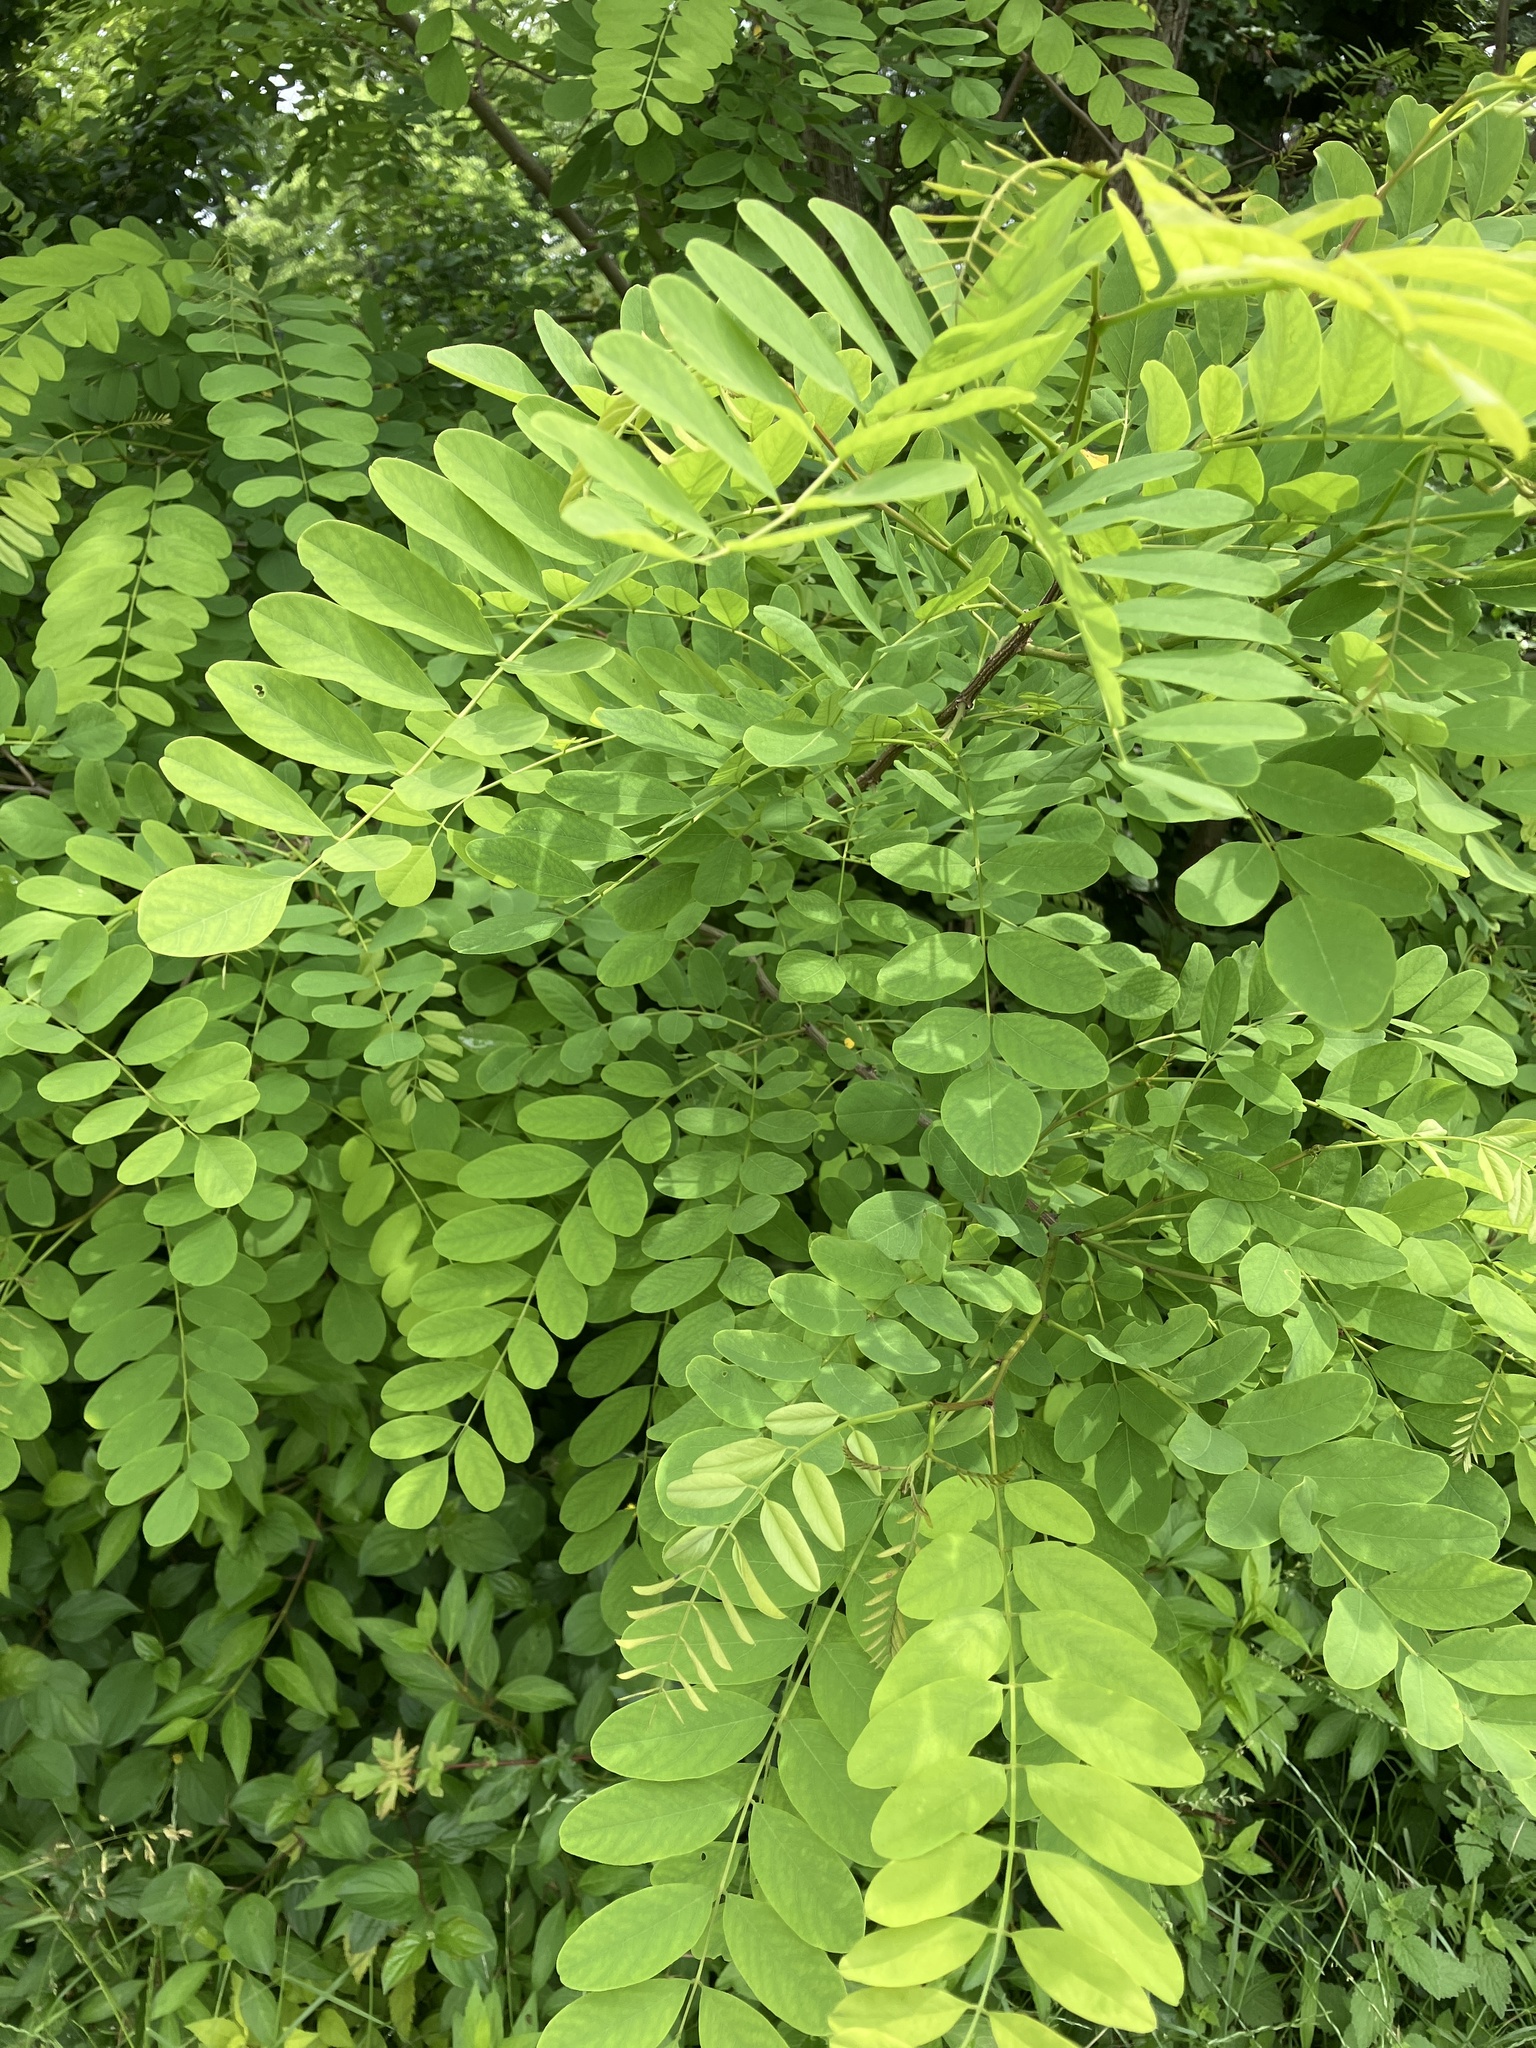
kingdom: Plantae
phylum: Tracheophyta
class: Magnoliopsida
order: Fabales
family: Fabaceae
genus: Robinia
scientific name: Robinia pseudoacacia
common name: Black locust
